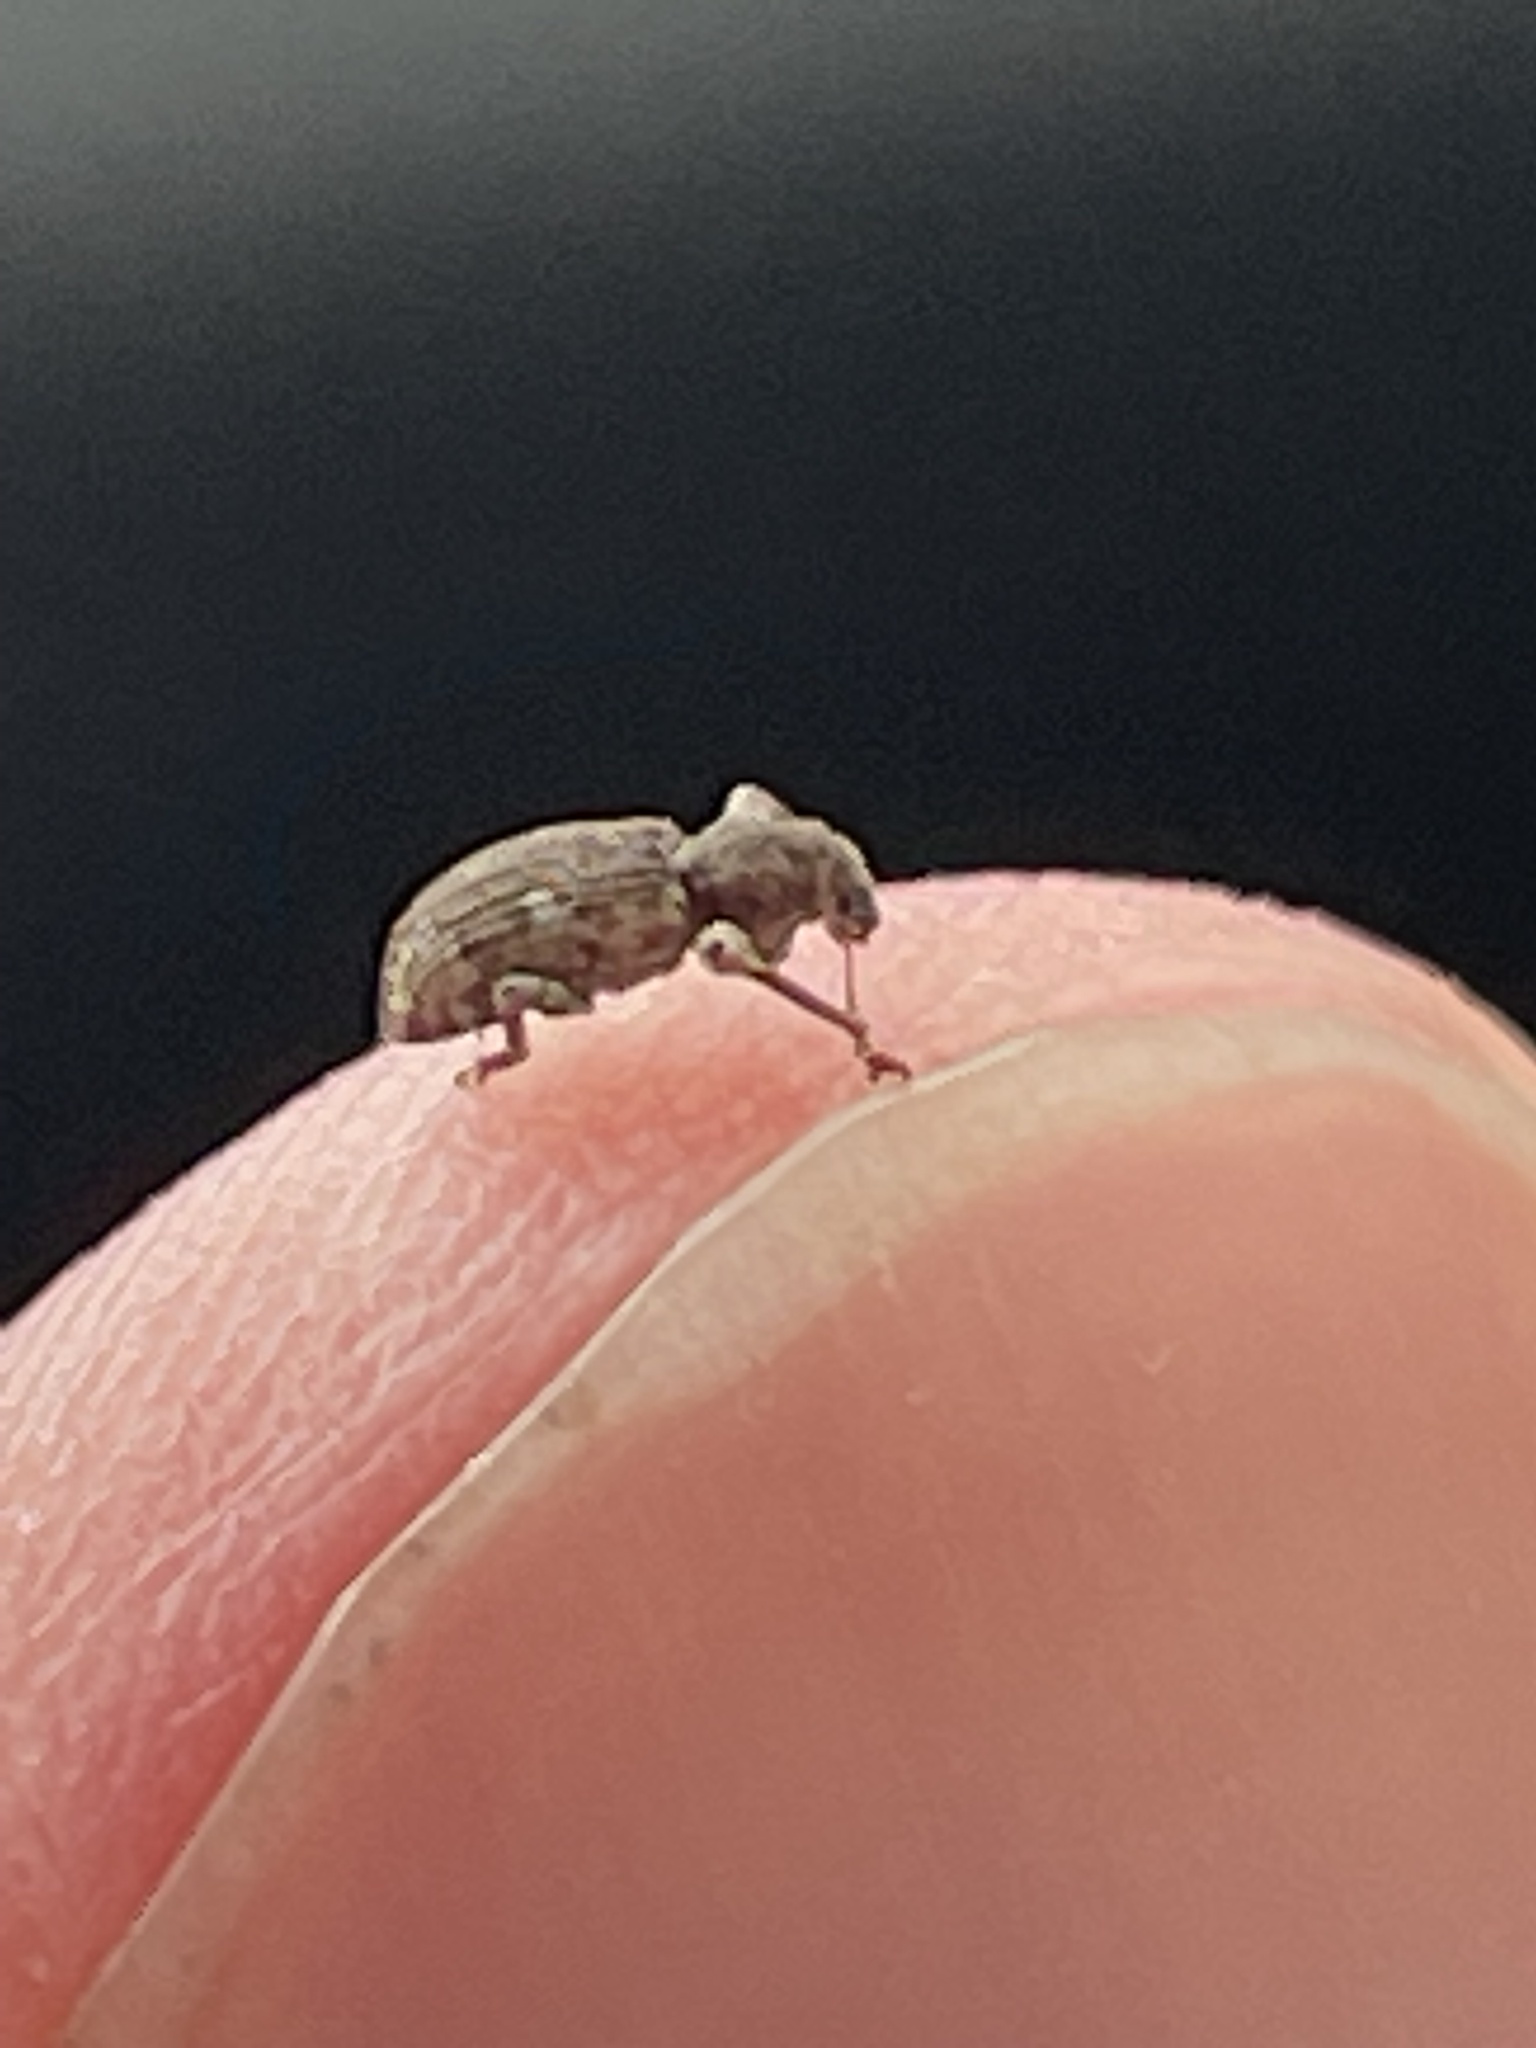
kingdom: Animalia
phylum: Arthropoda
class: Insecta
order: Coleoptera
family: Curculionidae
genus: Pandeleteius
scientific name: Pandeleteius hilaris
